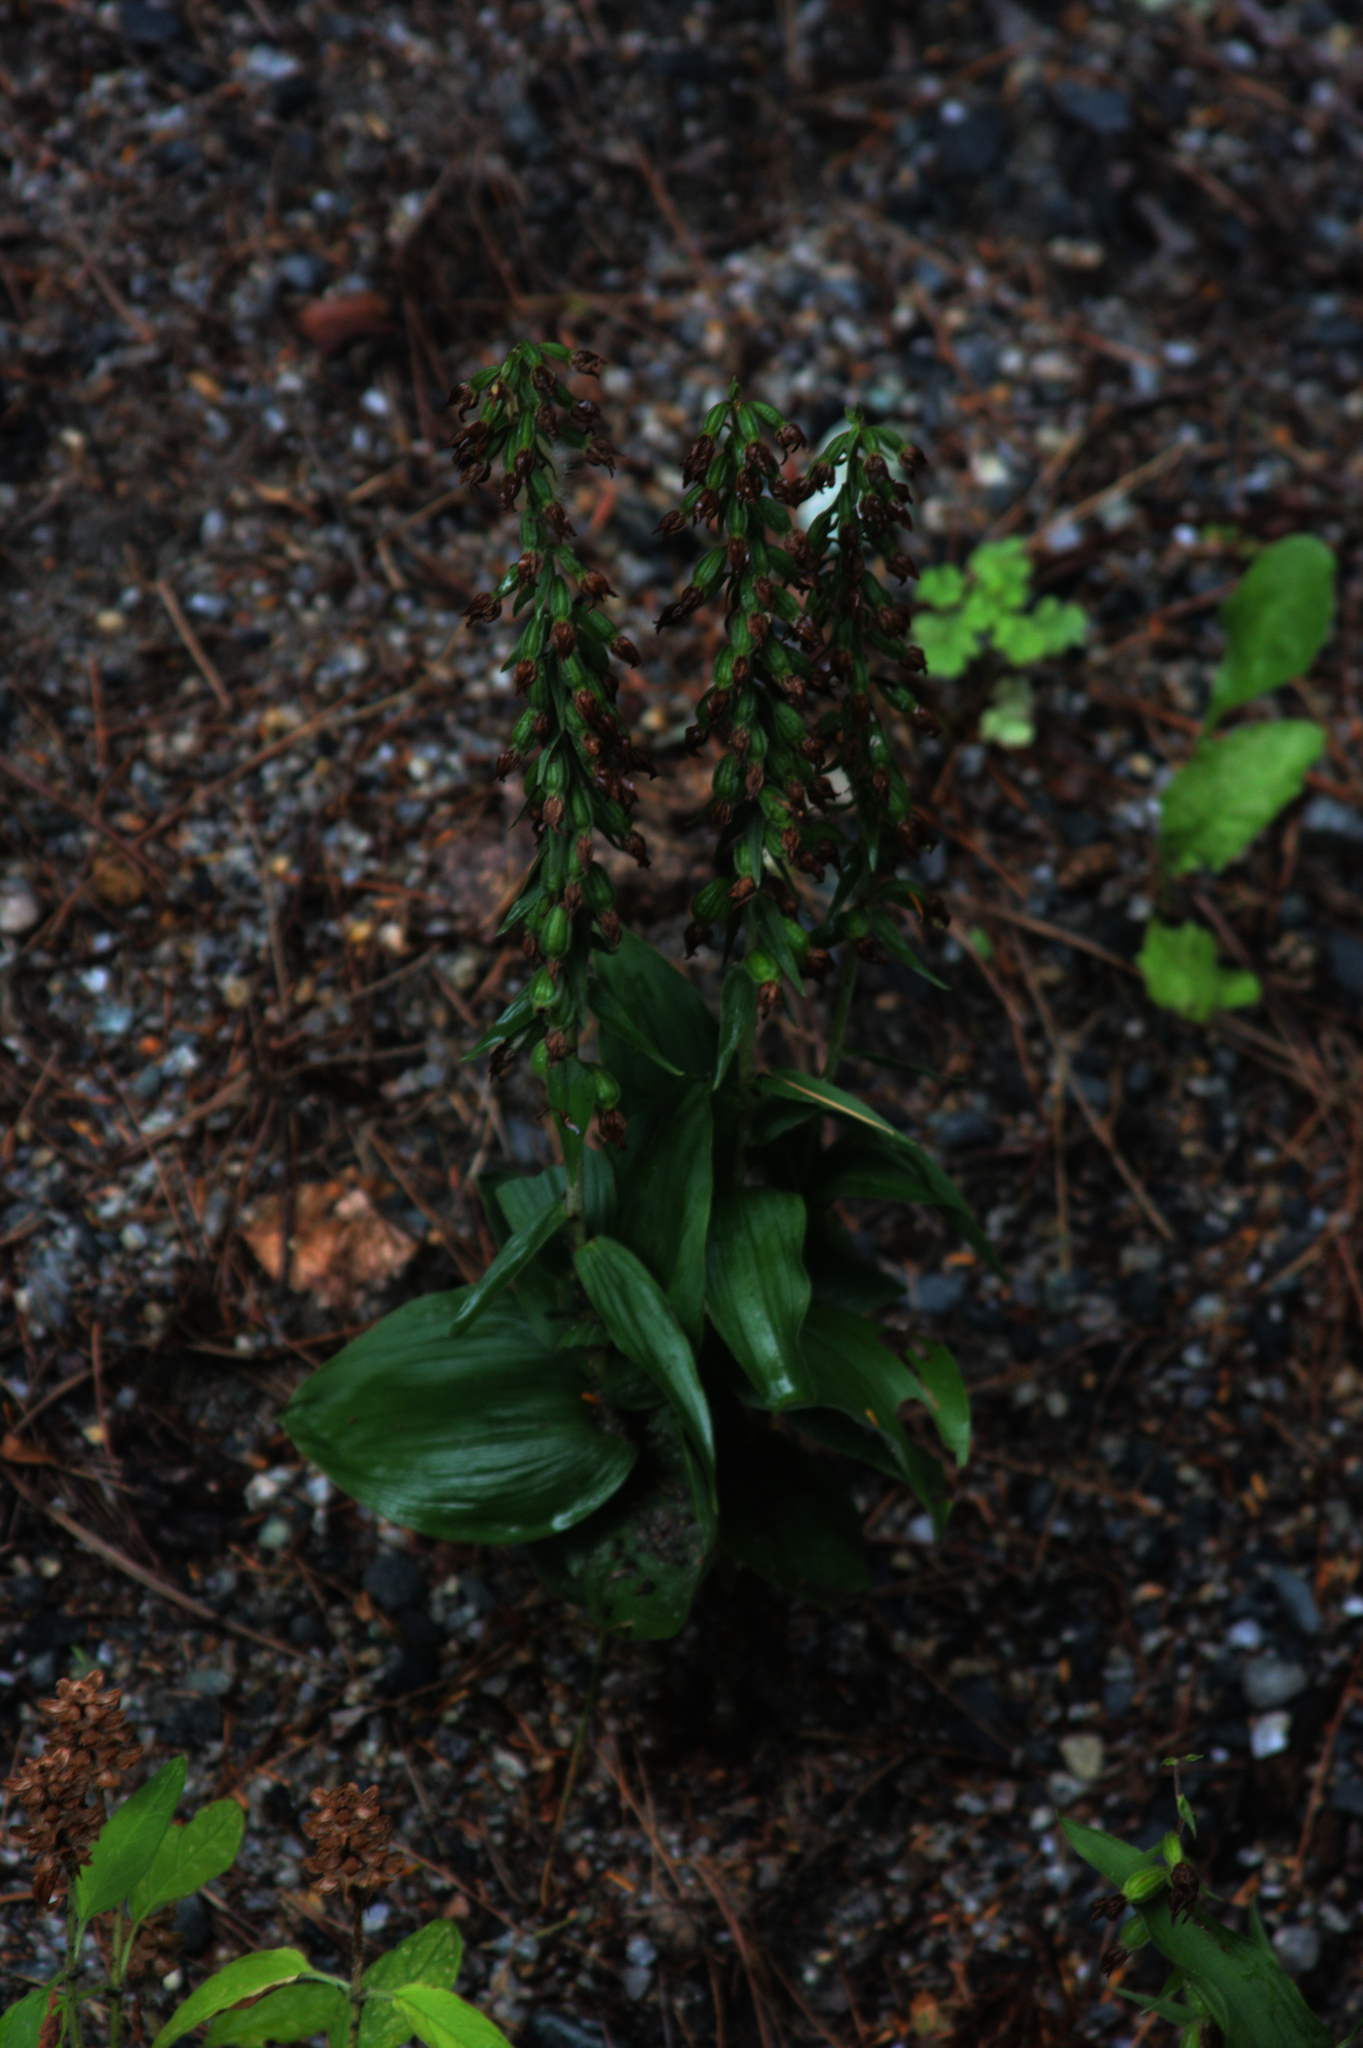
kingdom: Plantae
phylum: Tracheophyta
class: Liliopsida
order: Asparagales
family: Orchidaceae
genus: Epipactis
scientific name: Epipactis helleborine
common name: Broad-leaved helleborine
